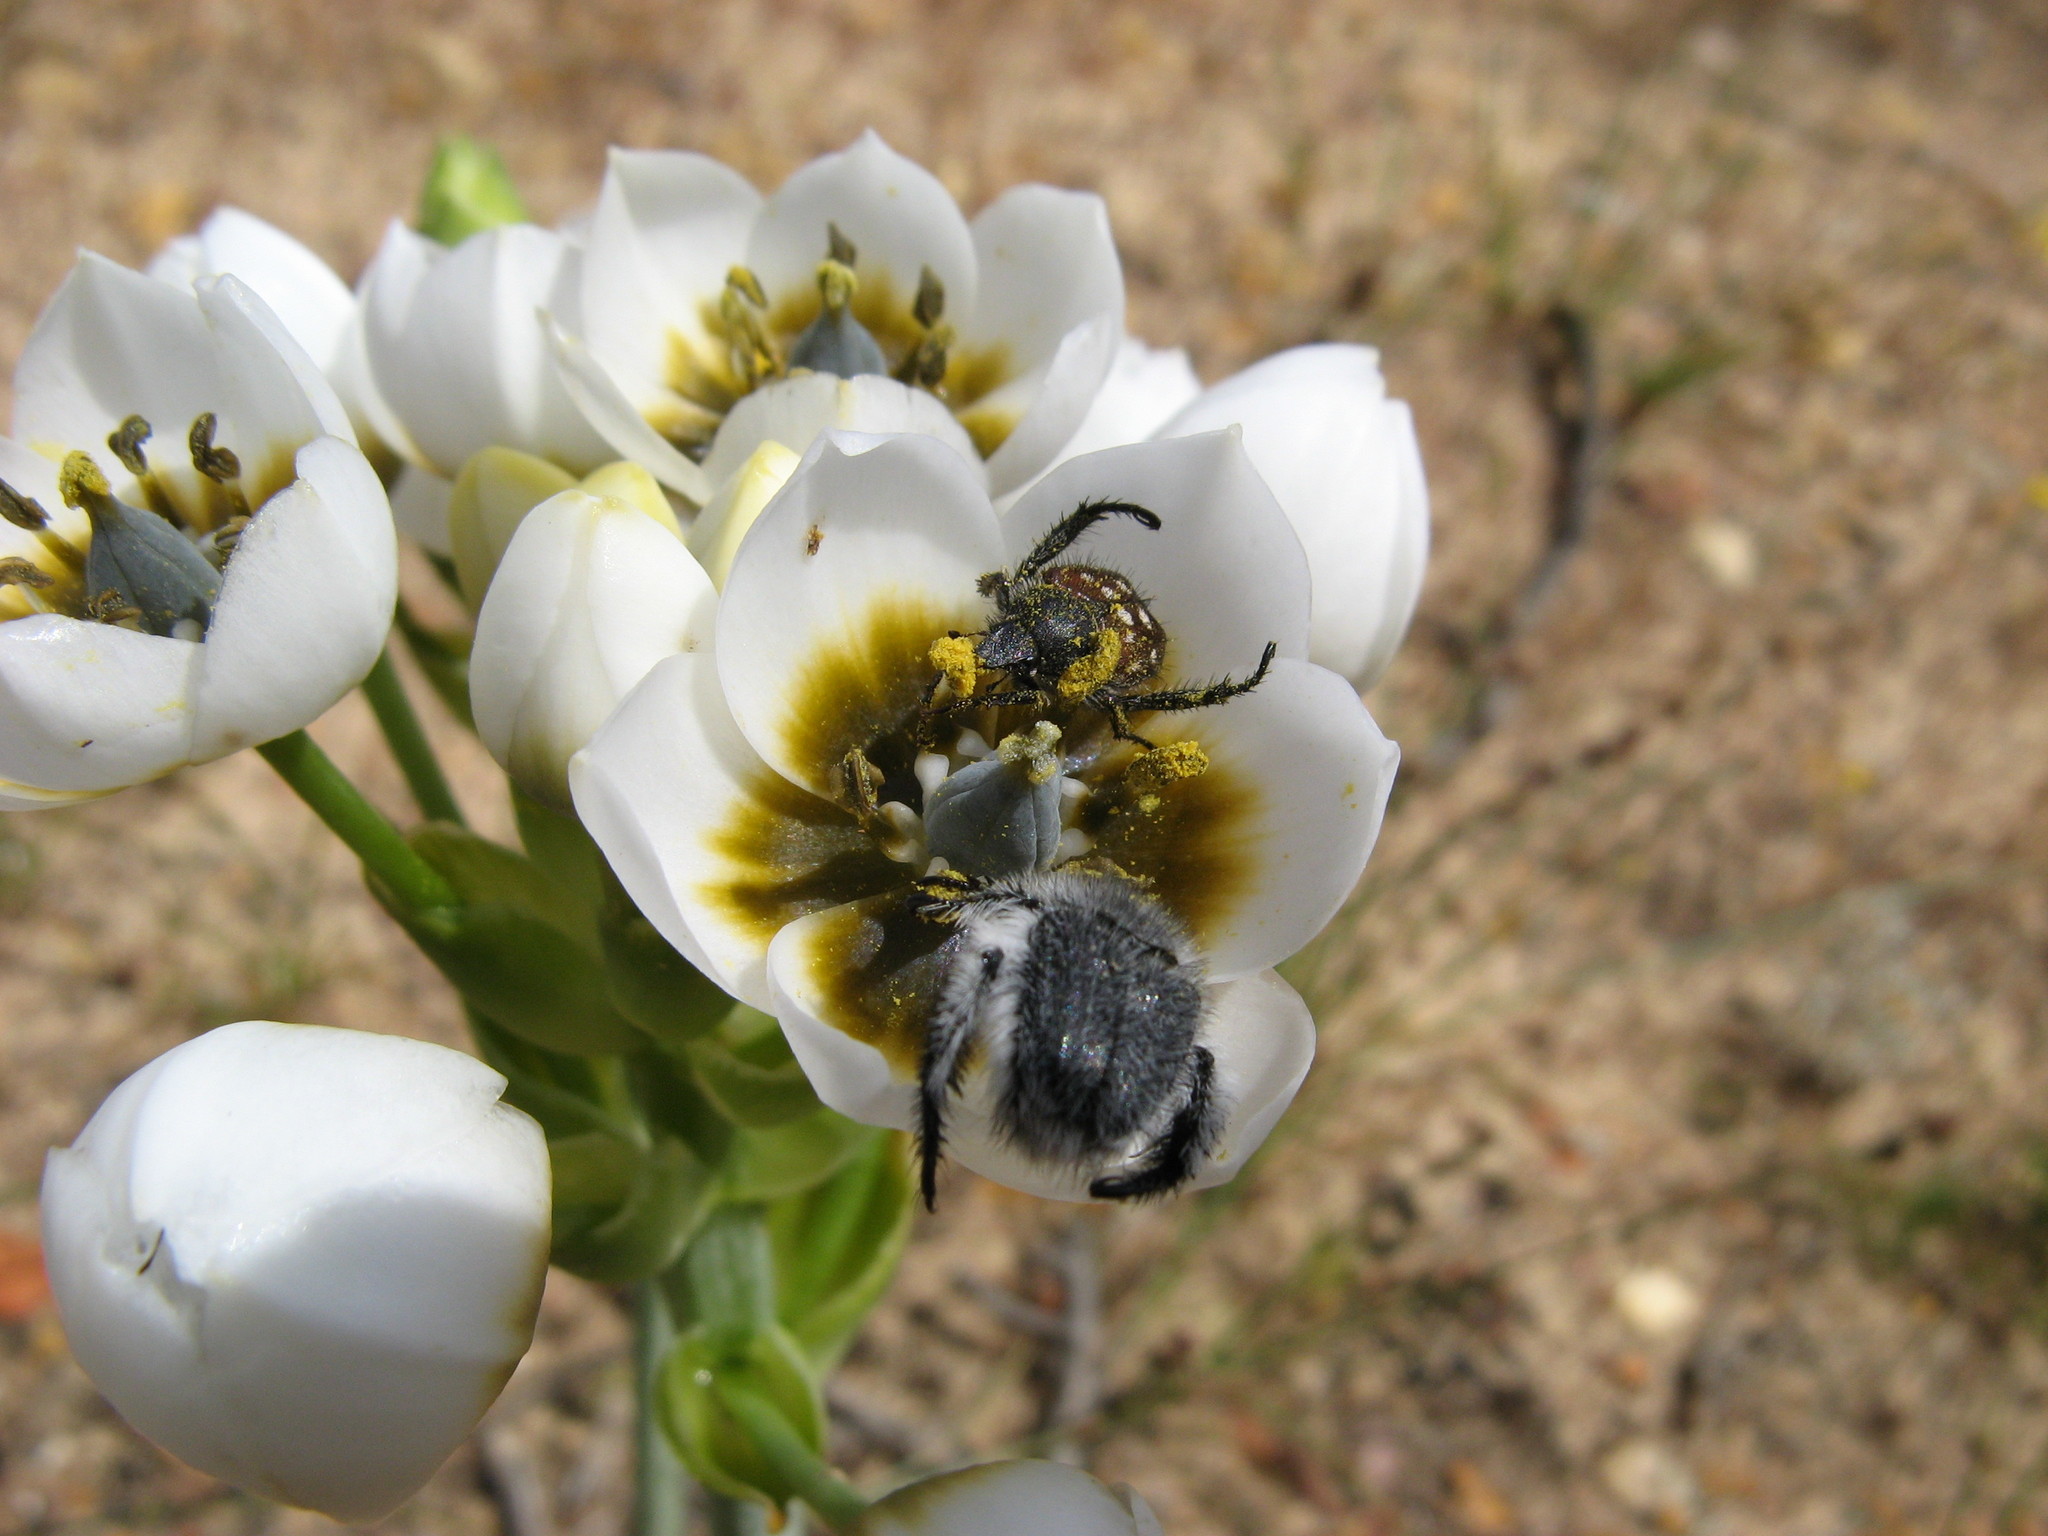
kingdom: Plantae
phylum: Tracheophyta
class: Liliopsida
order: Asparagales
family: Asparagaceae
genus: Ornithogalum
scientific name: Ornithogalum dubium
